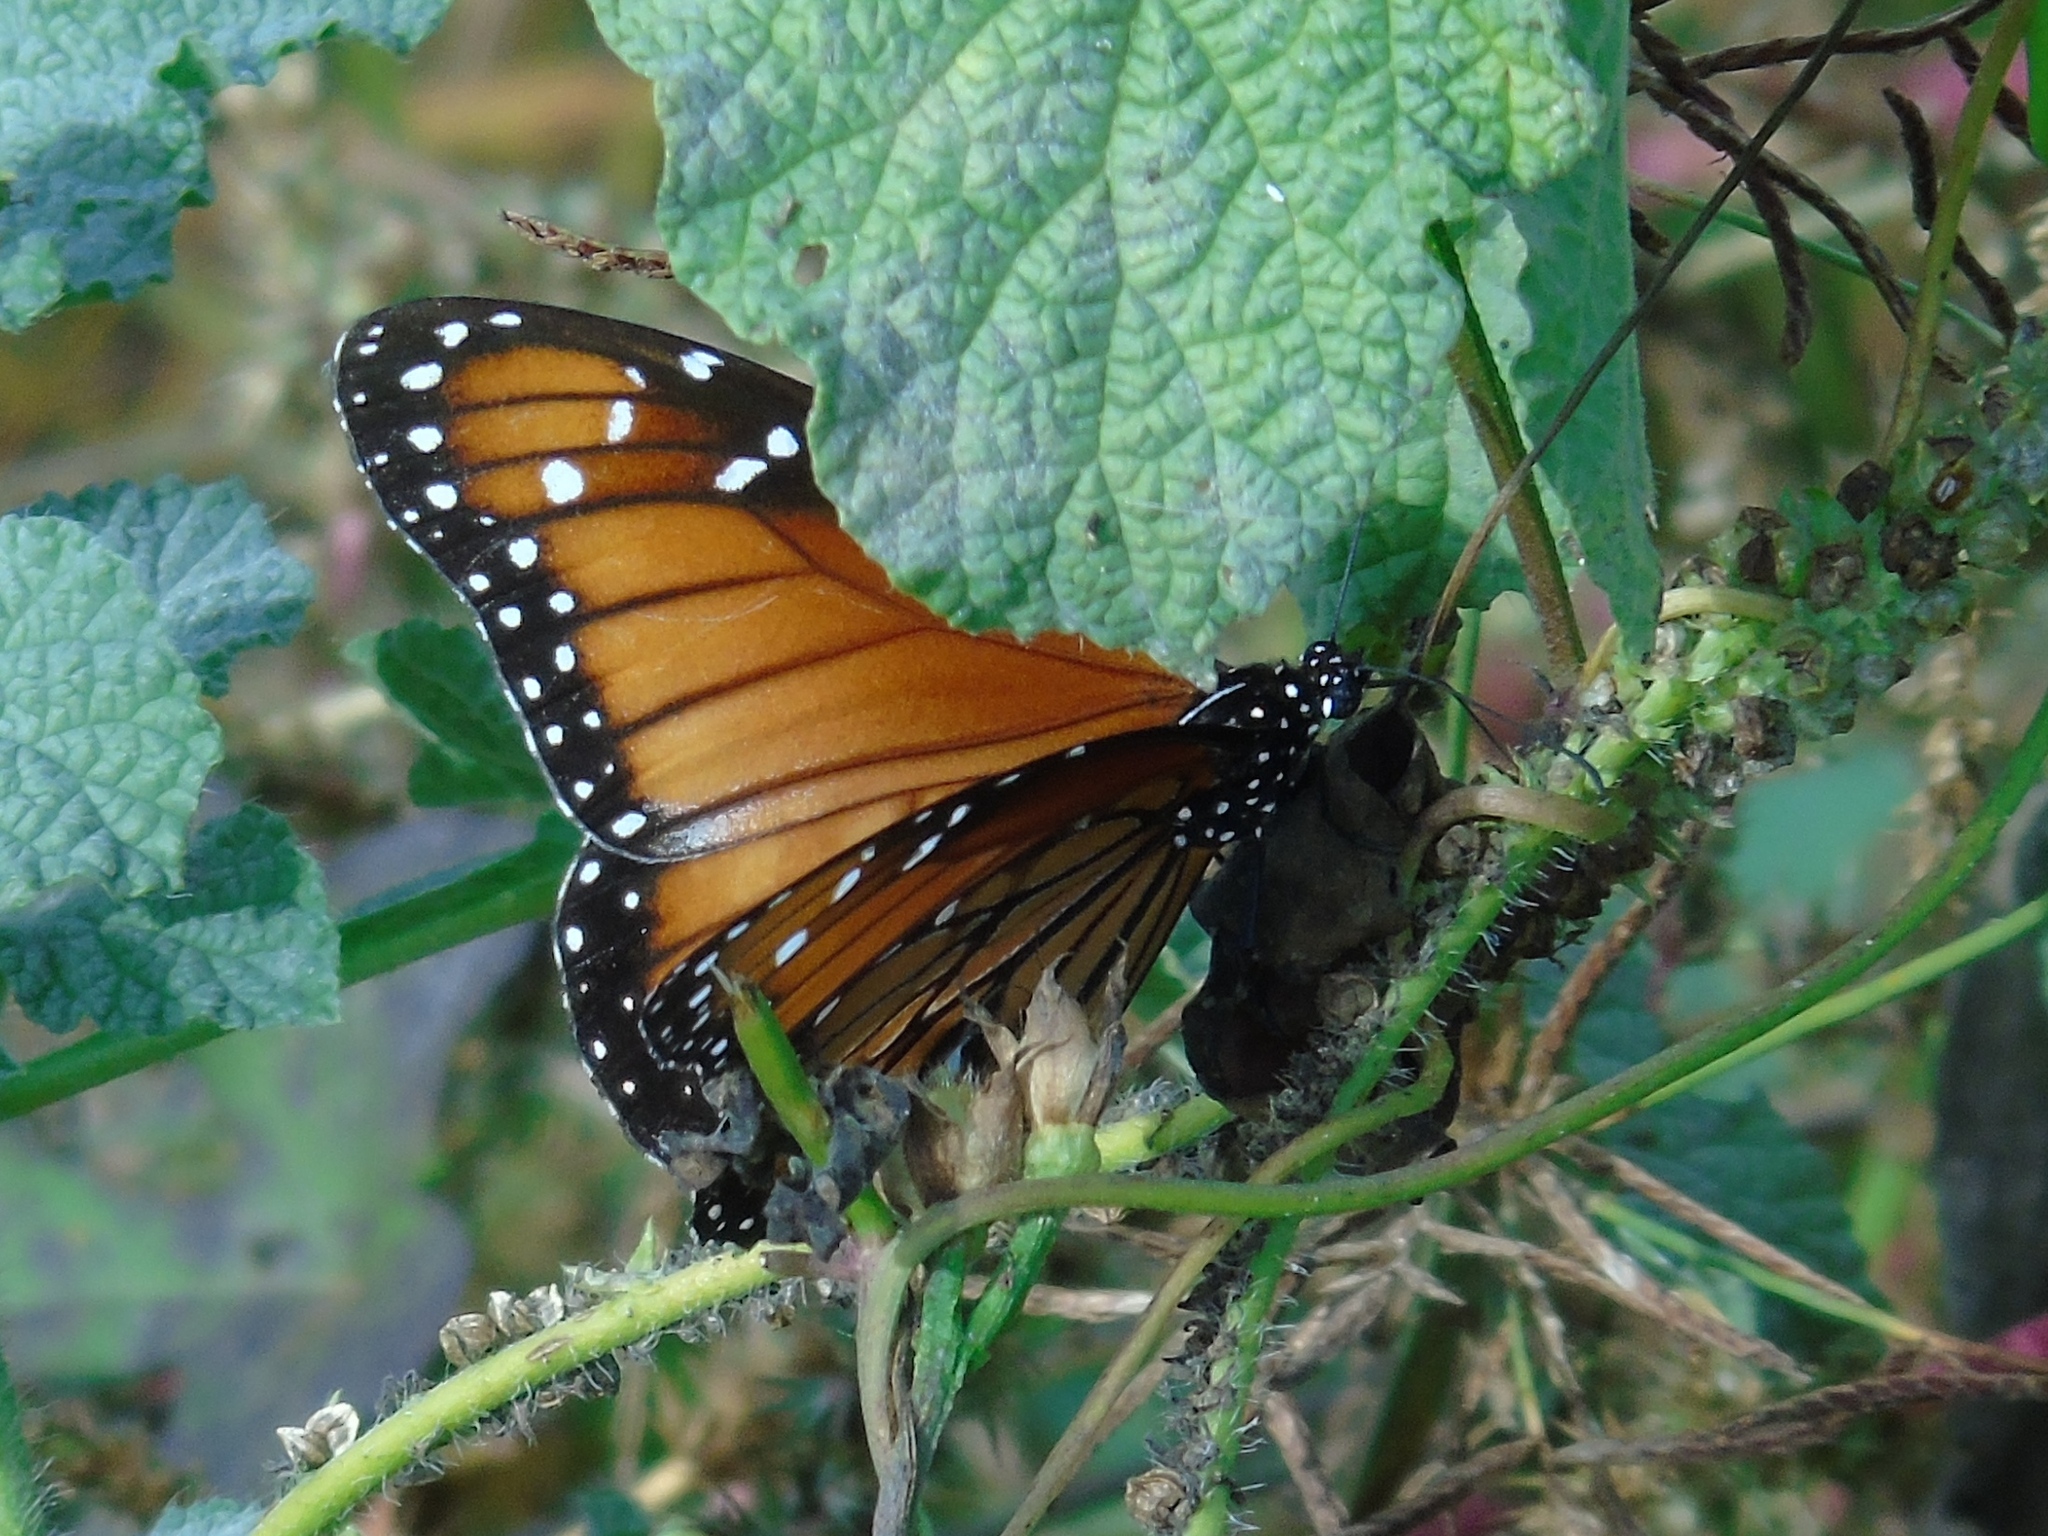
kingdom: Animalia
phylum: Arthropoda
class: Insecta
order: Lepidoptera
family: Nymphalidae
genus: Danaus
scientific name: Danaus eresimus
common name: Soldier
